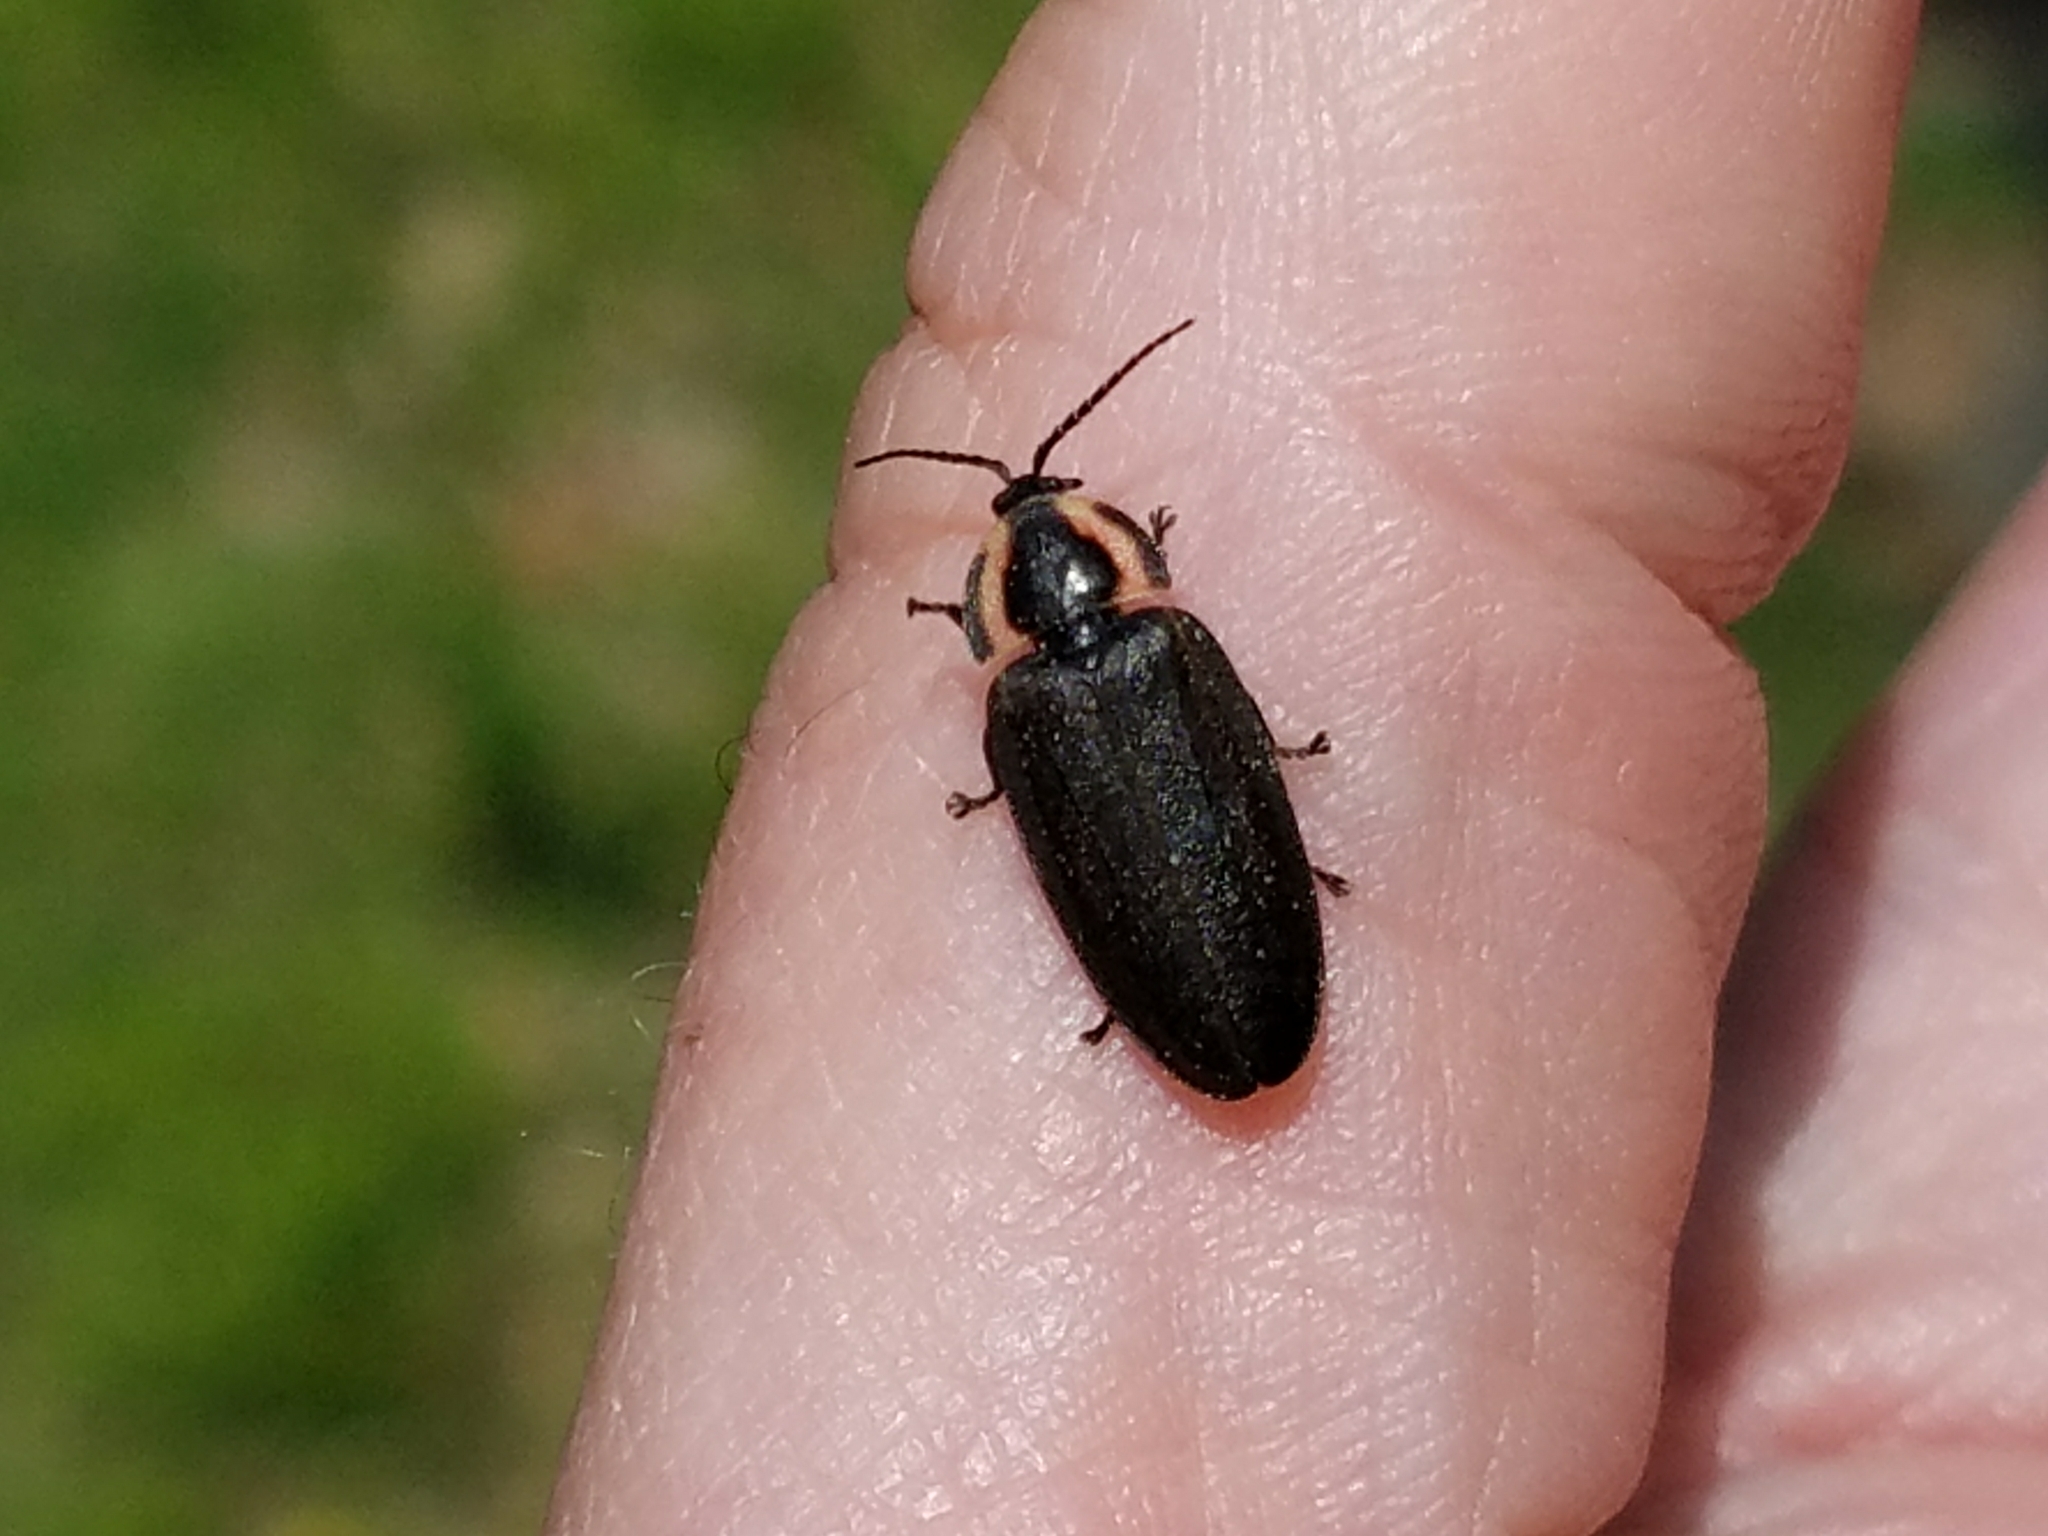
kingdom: Animalia
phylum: Arthropoda
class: Insecta
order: Coleoptera
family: Lampyridae
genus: Photinus
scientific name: Photinus corrusca
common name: Winter firefly
